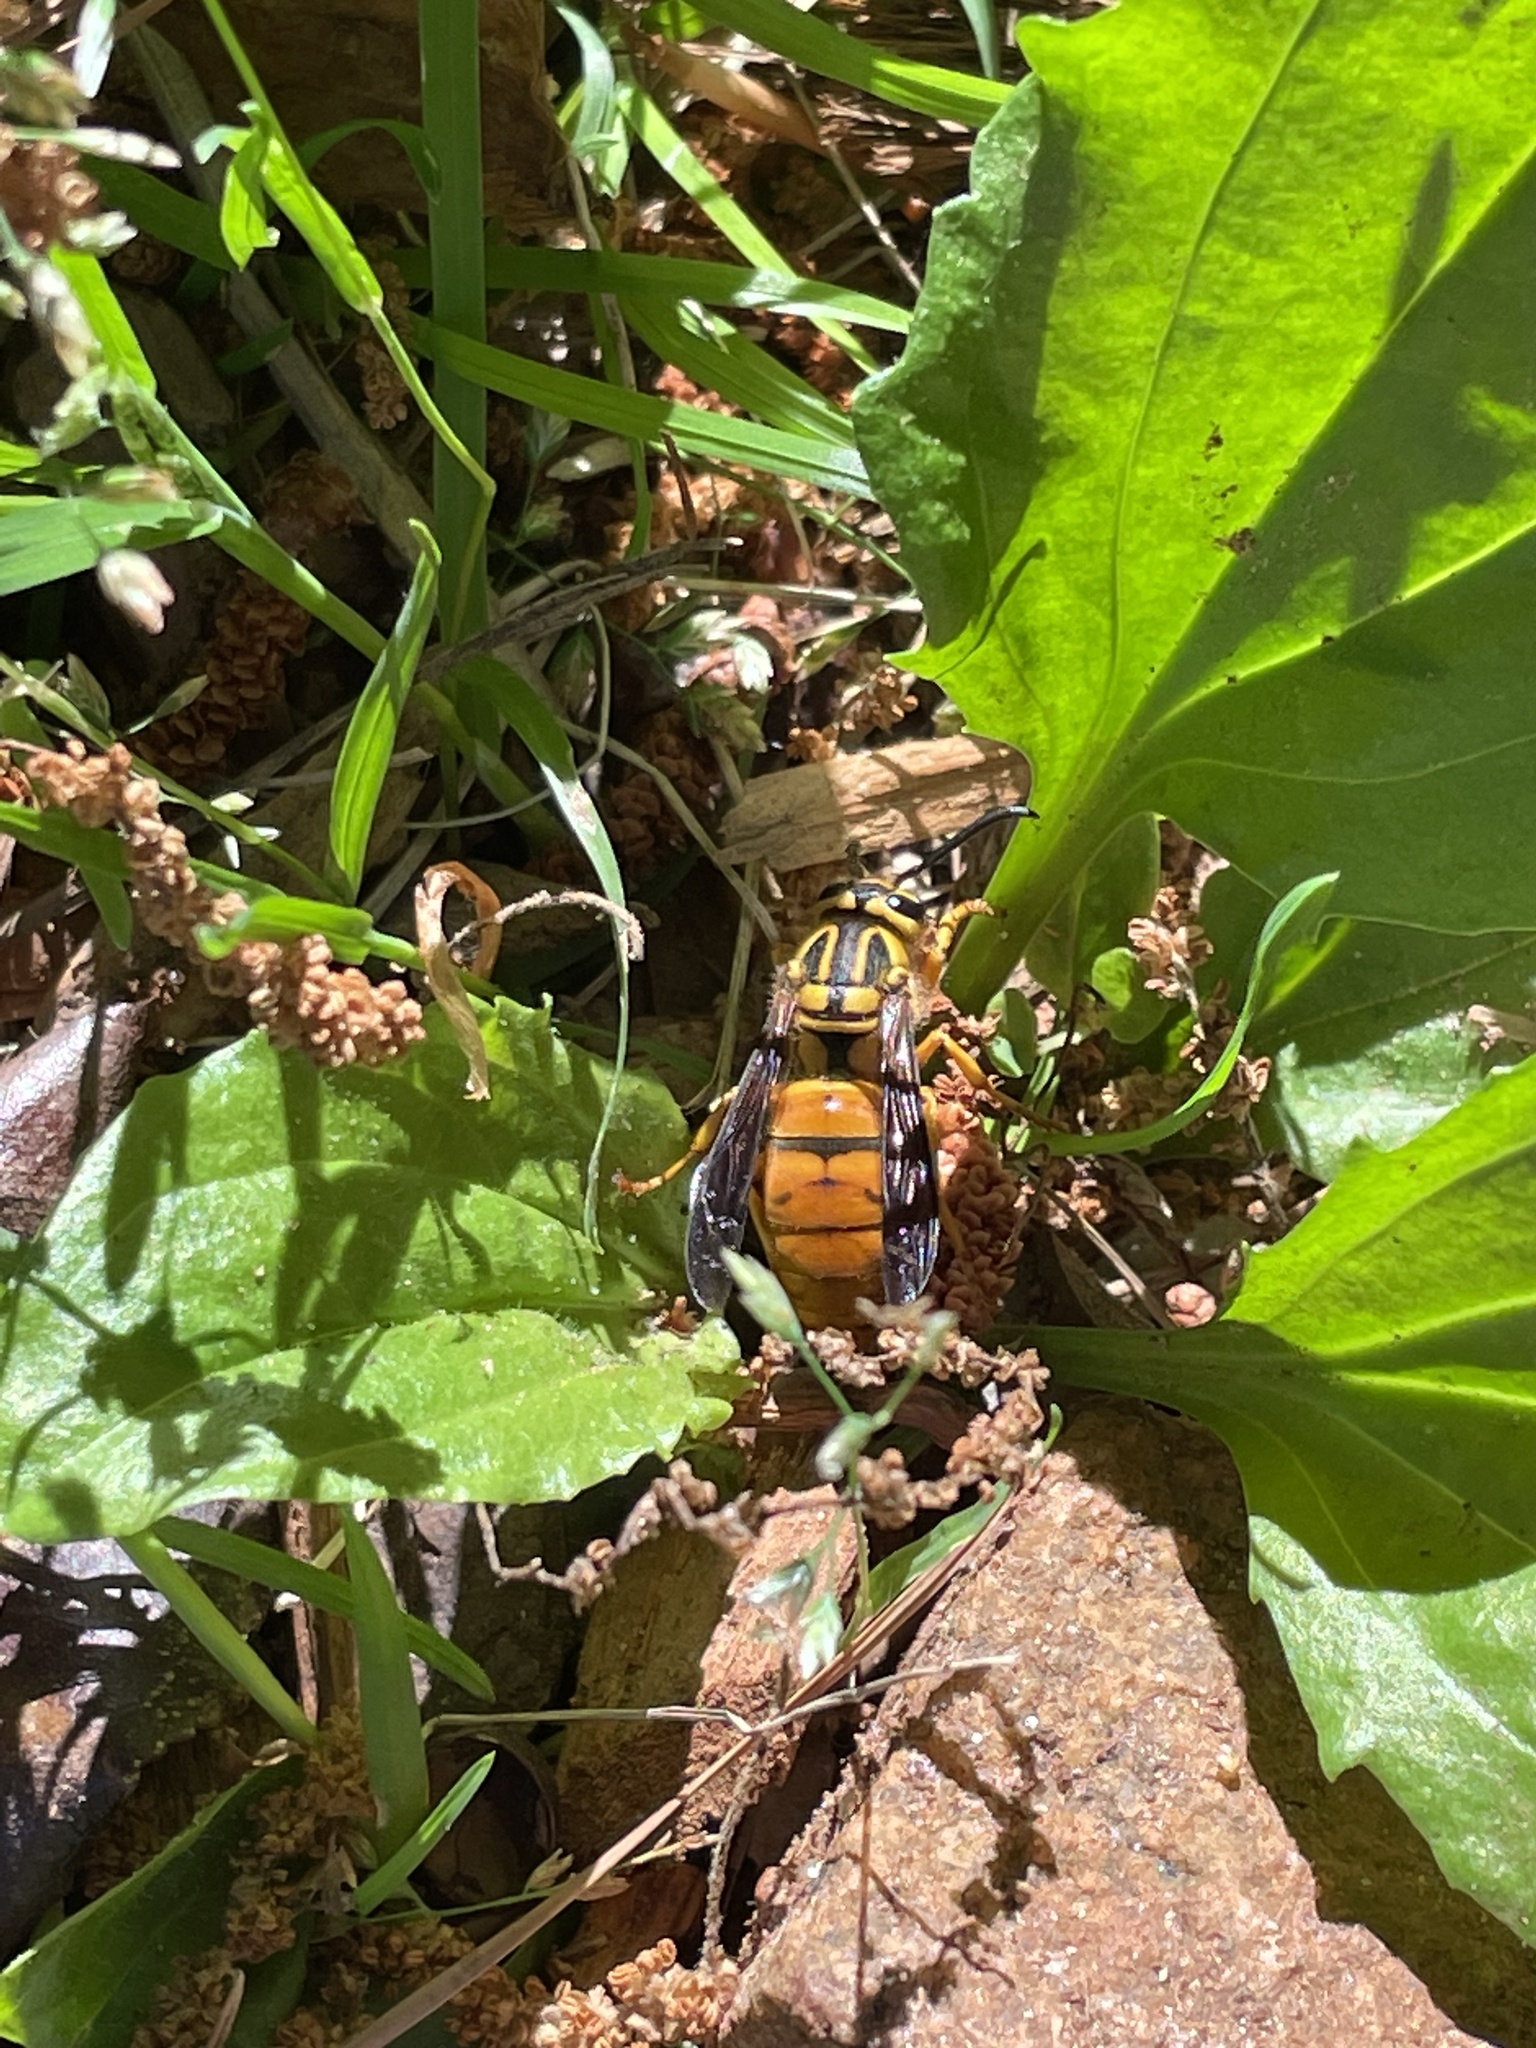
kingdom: Animalia
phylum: Arthropoda
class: Insecta
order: Hymenoptera
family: Vespidae
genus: Vespula
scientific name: Vespula squamosa
